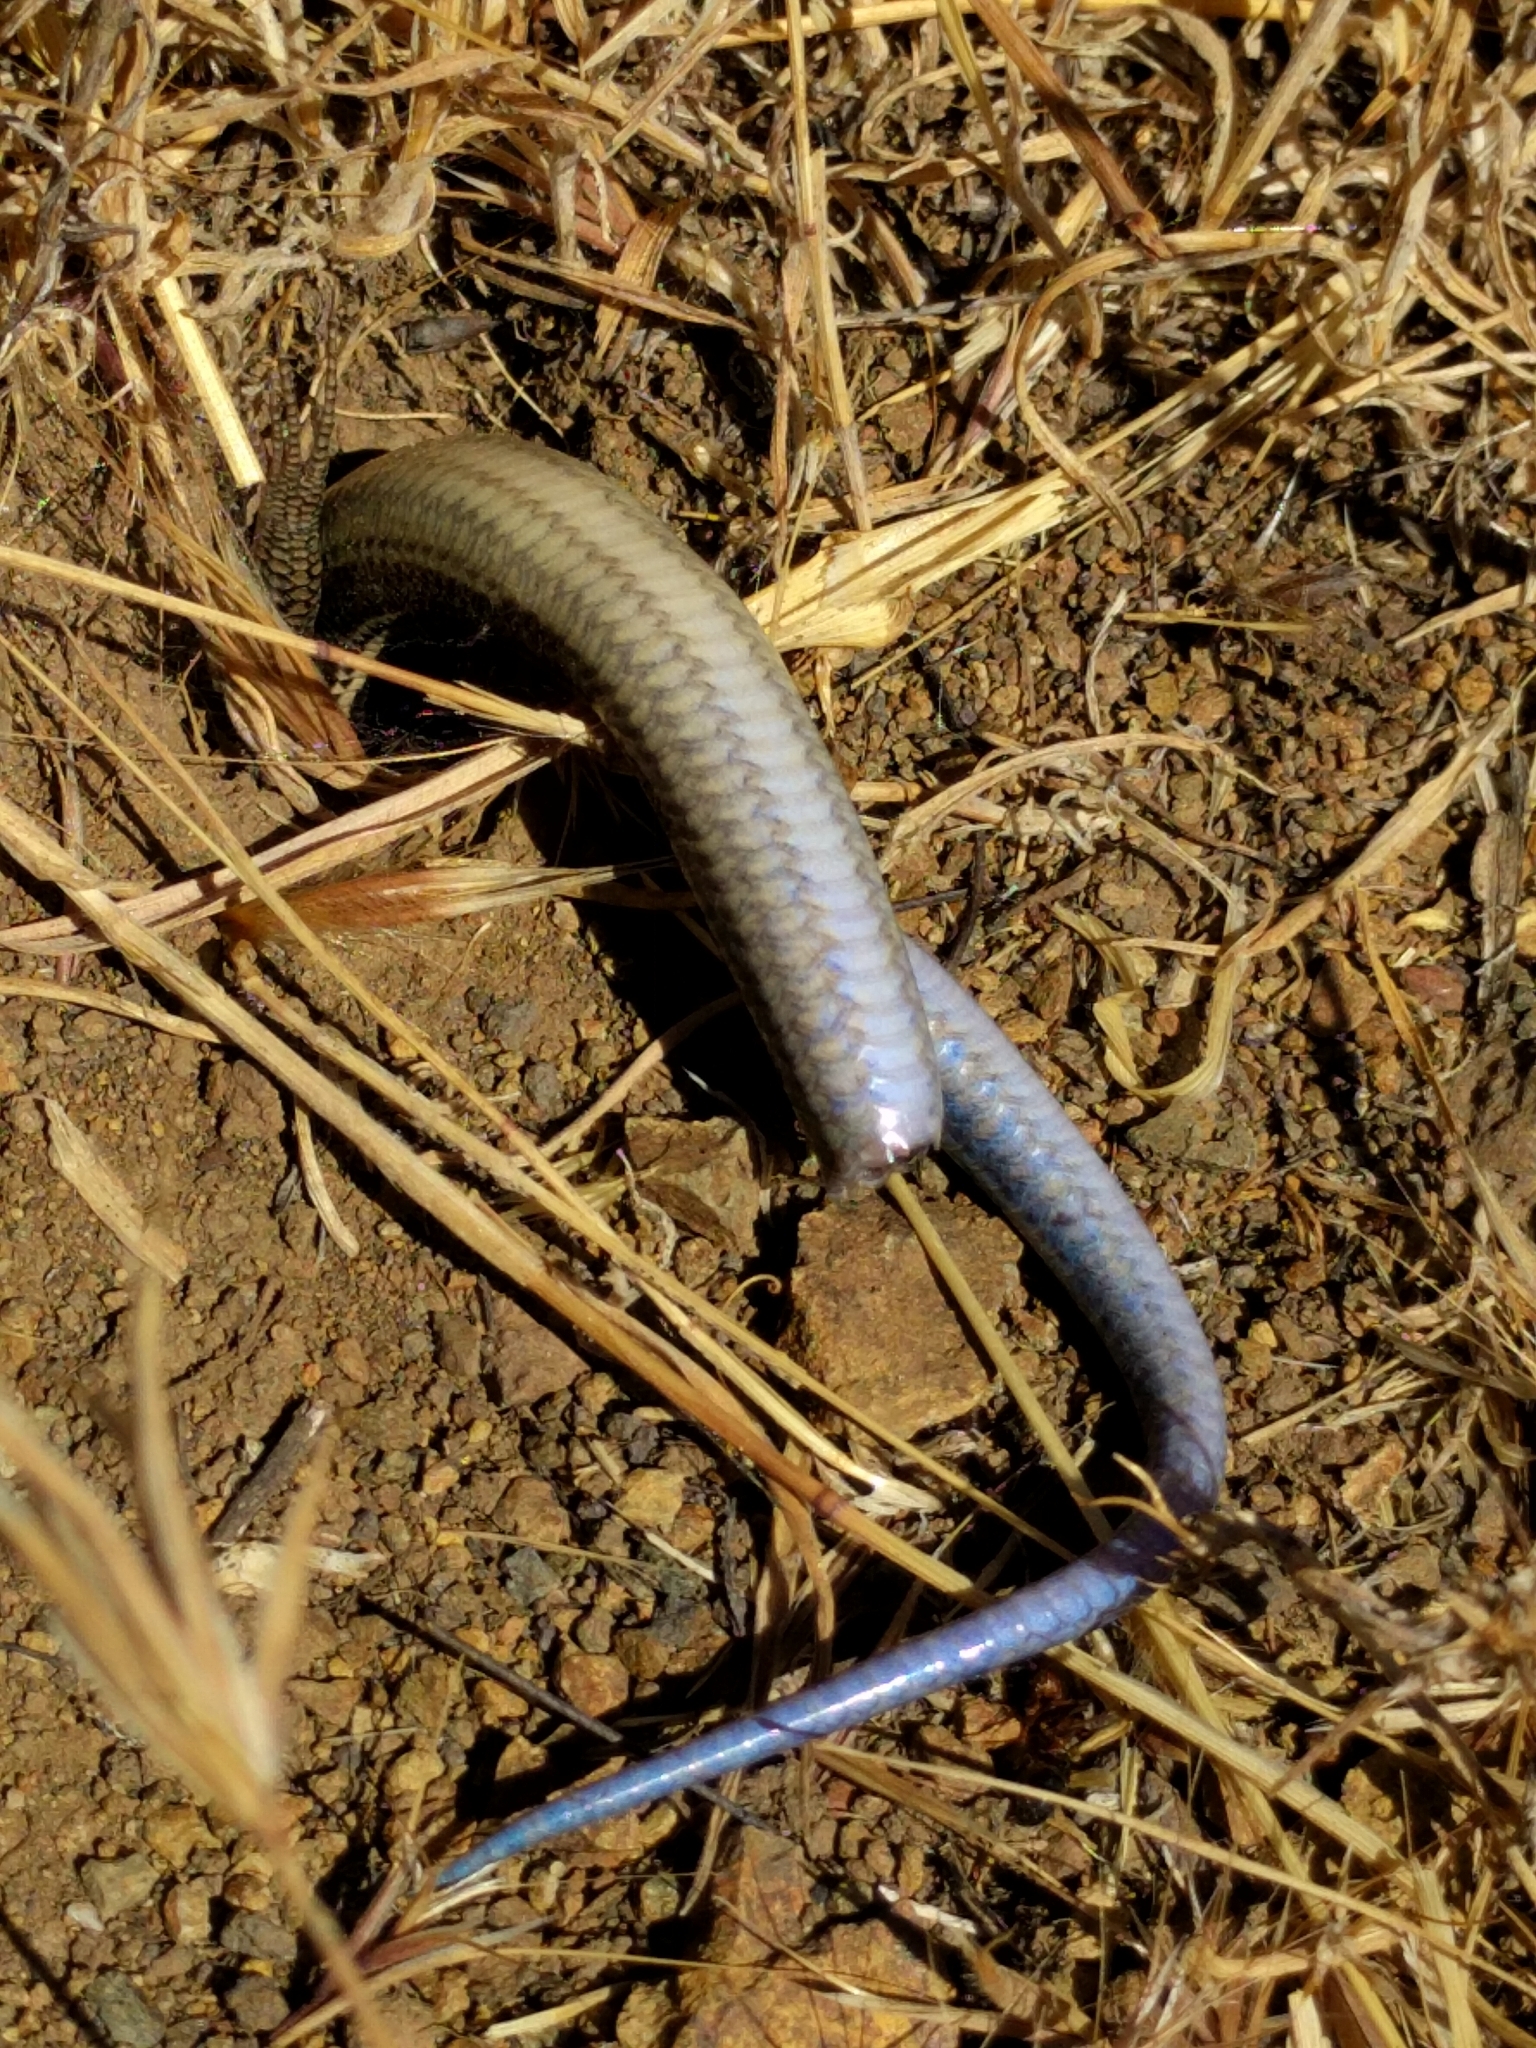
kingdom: Animalia
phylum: Chordata
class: Squamata
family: Scincidae
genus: Plestiodon
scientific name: Plestiodon skiltonianus
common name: Coronado island skink [interparietalis]
